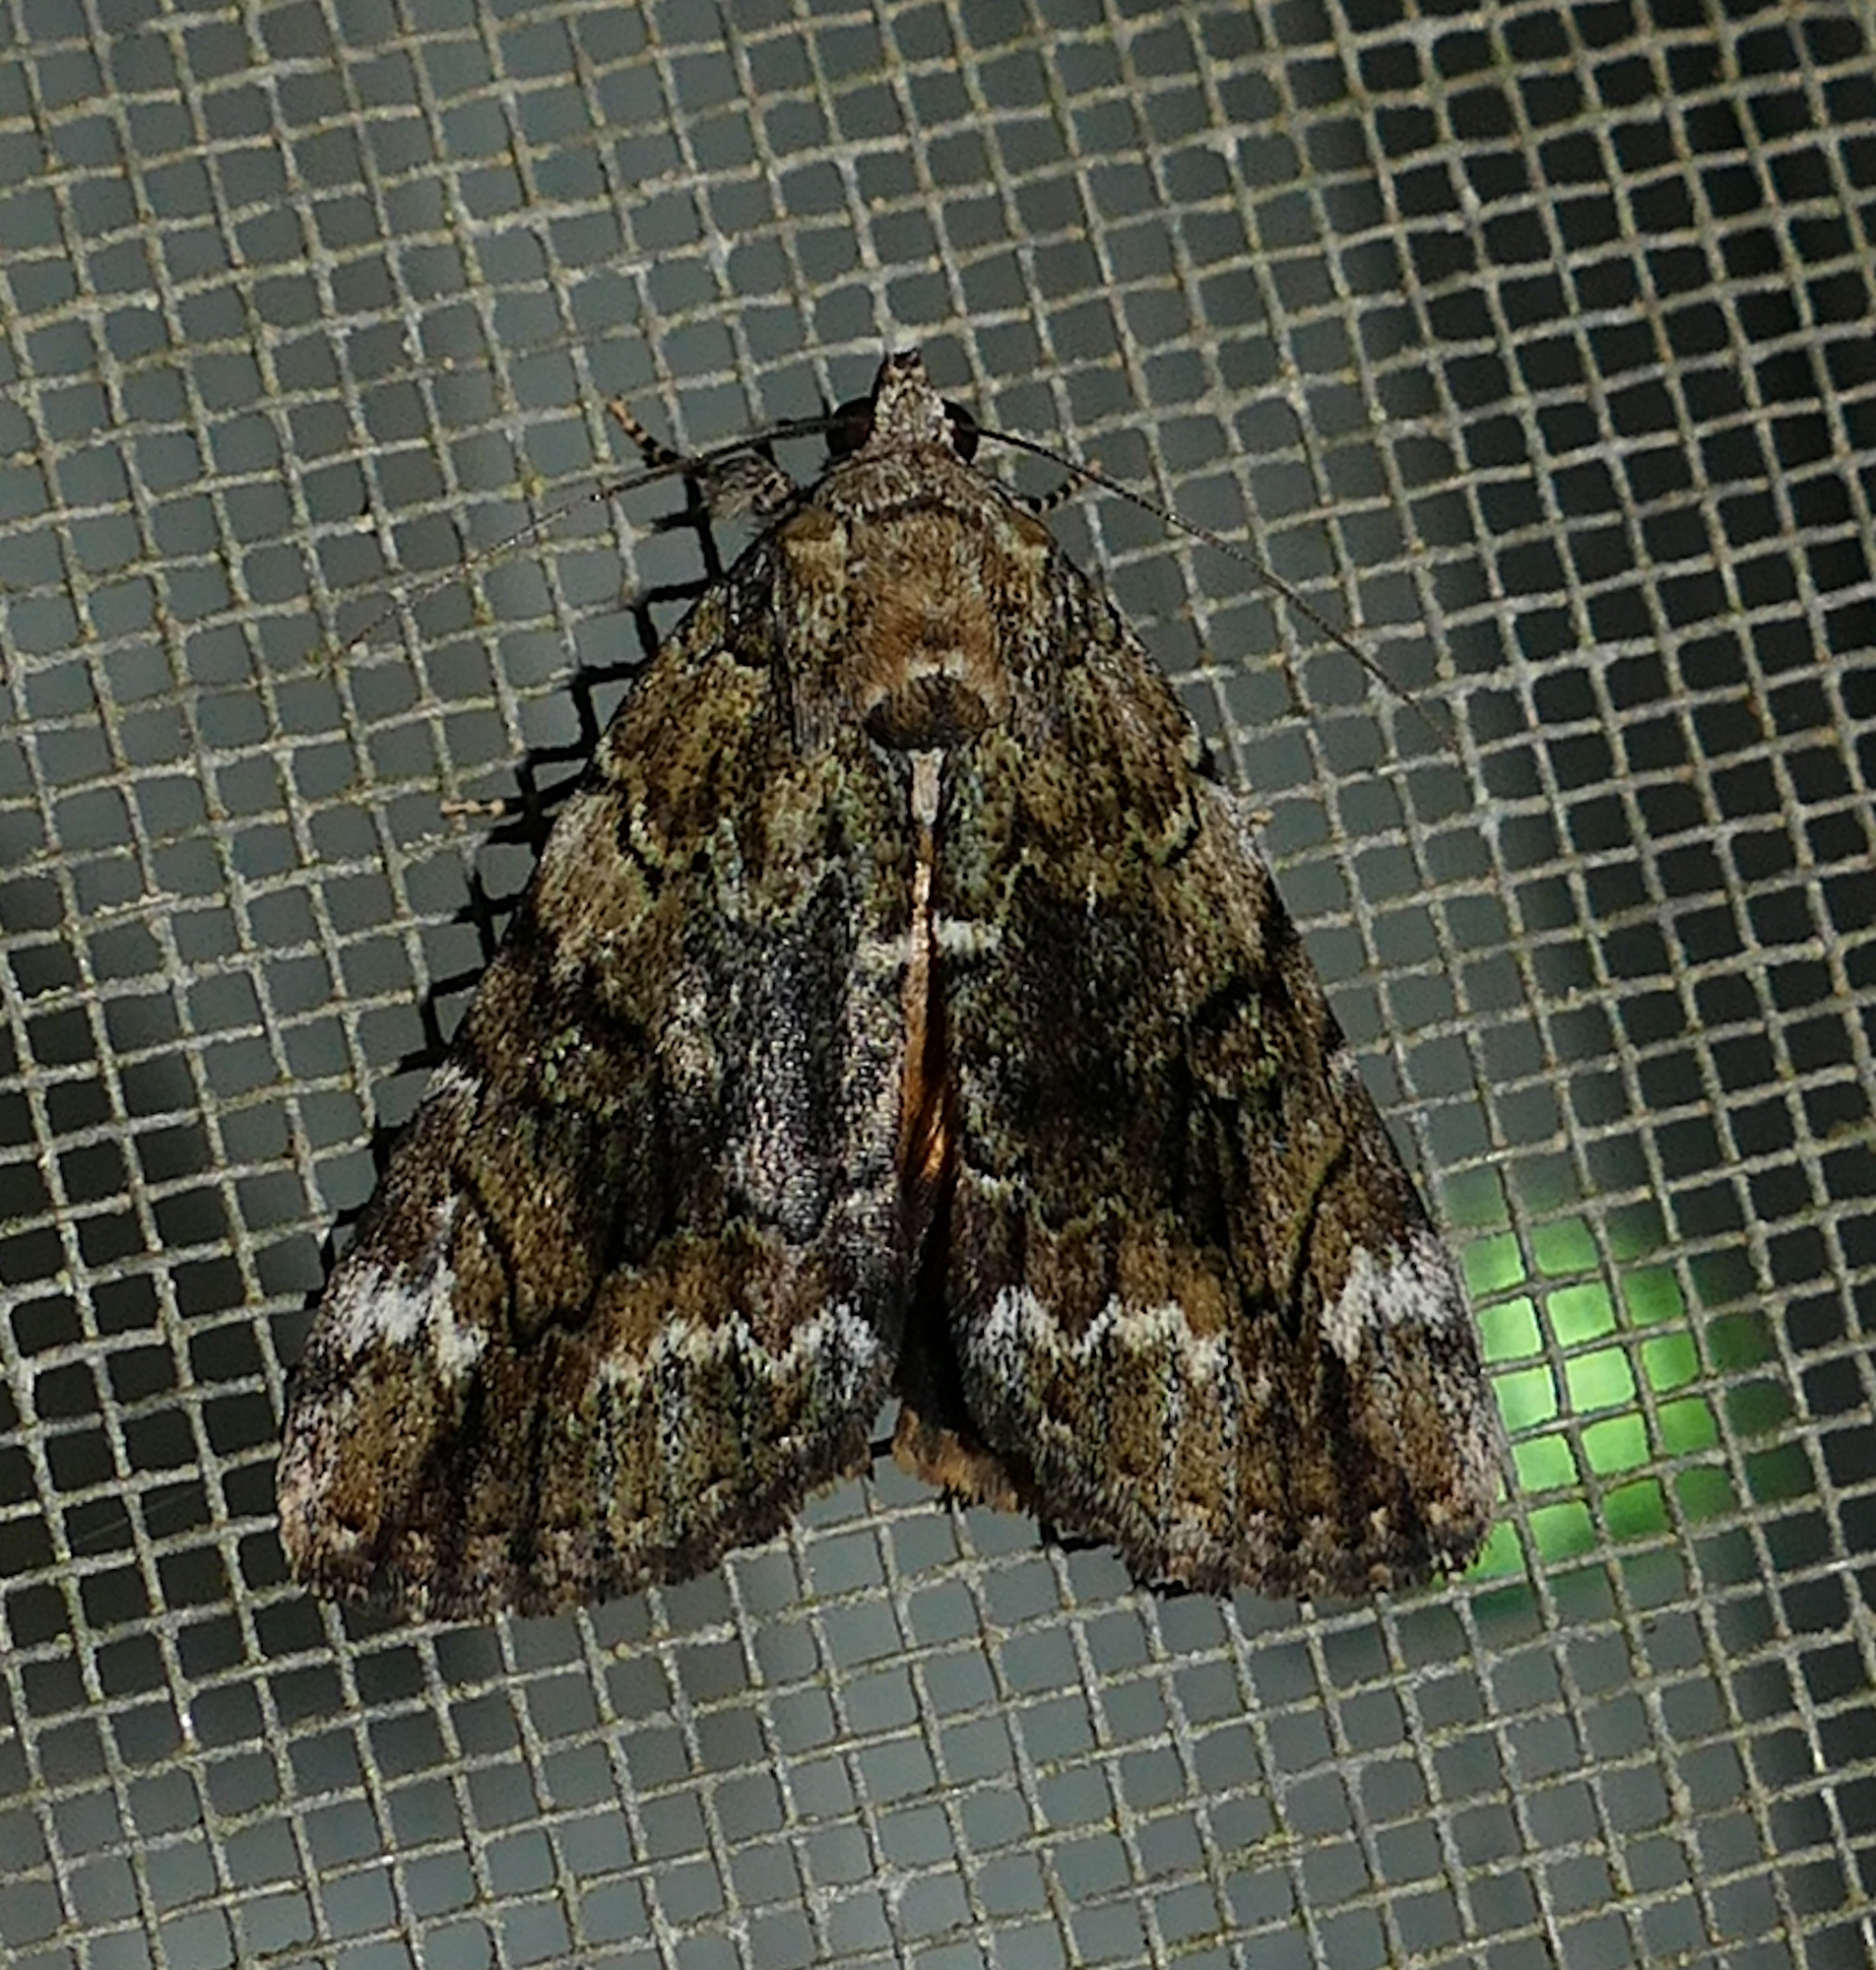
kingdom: Animalia
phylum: Arthropoda
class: Insecta
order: Lepidoptera
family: Erebidae
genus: Catocala
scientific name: Catocala micronympha
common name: Little nymph underwing
